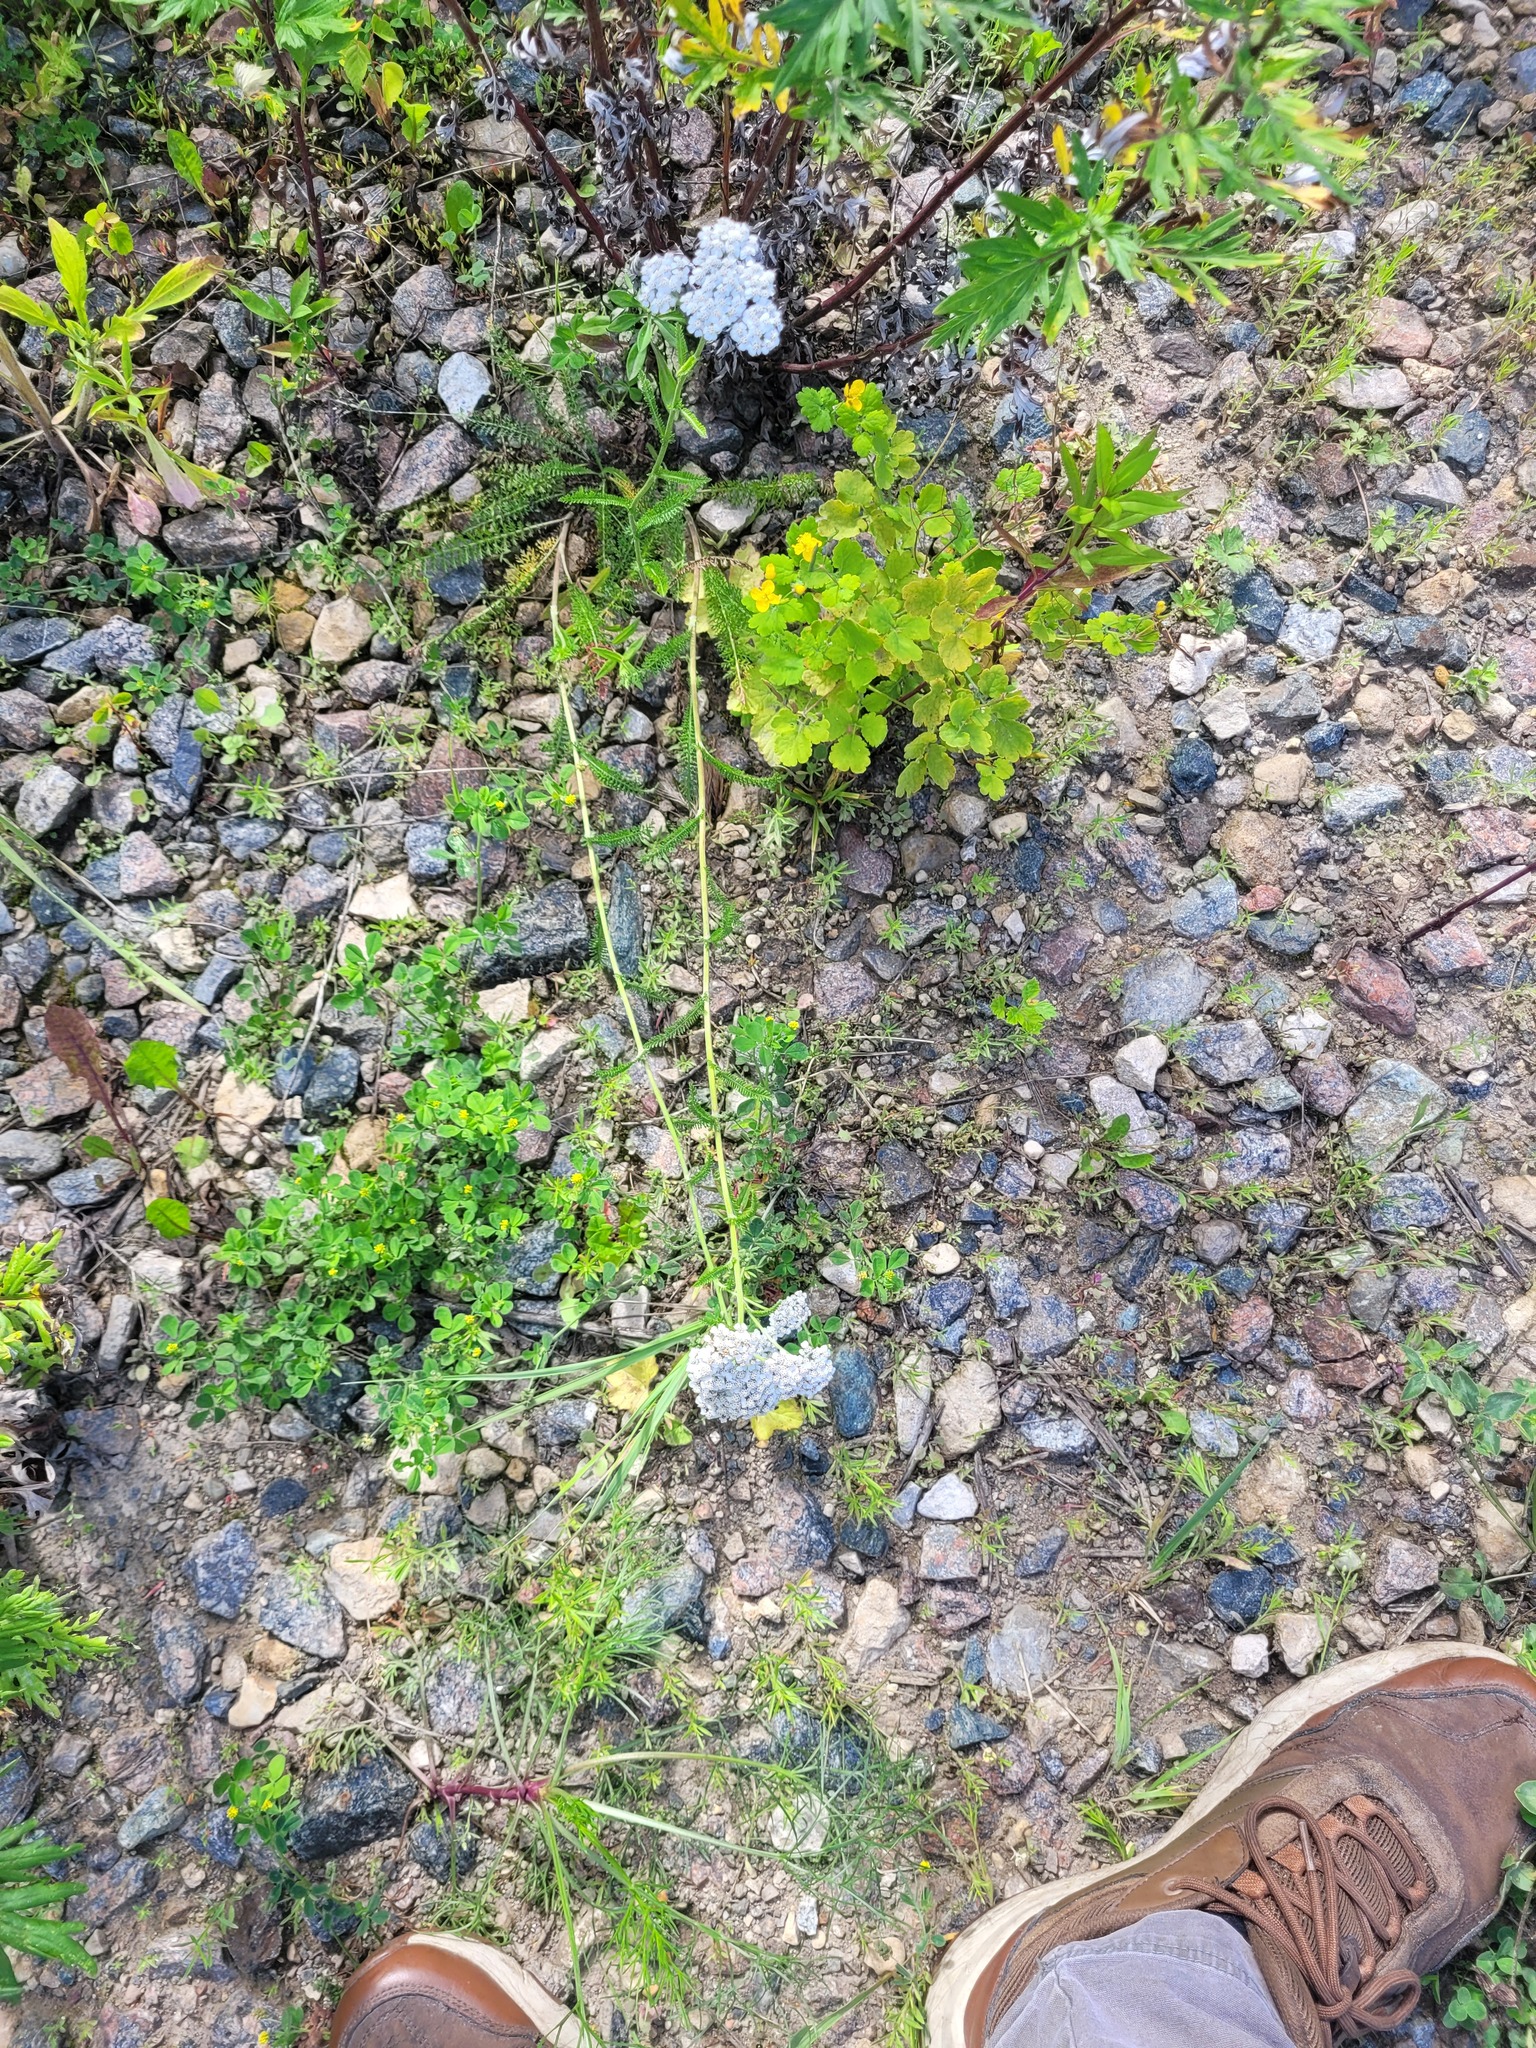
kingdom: Plantae
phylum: Tracheophyta
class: Magnoliopsida
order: Asterales
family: Asteraceae
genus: Achillea
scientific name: Achillea millefolium
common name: Yarrow
